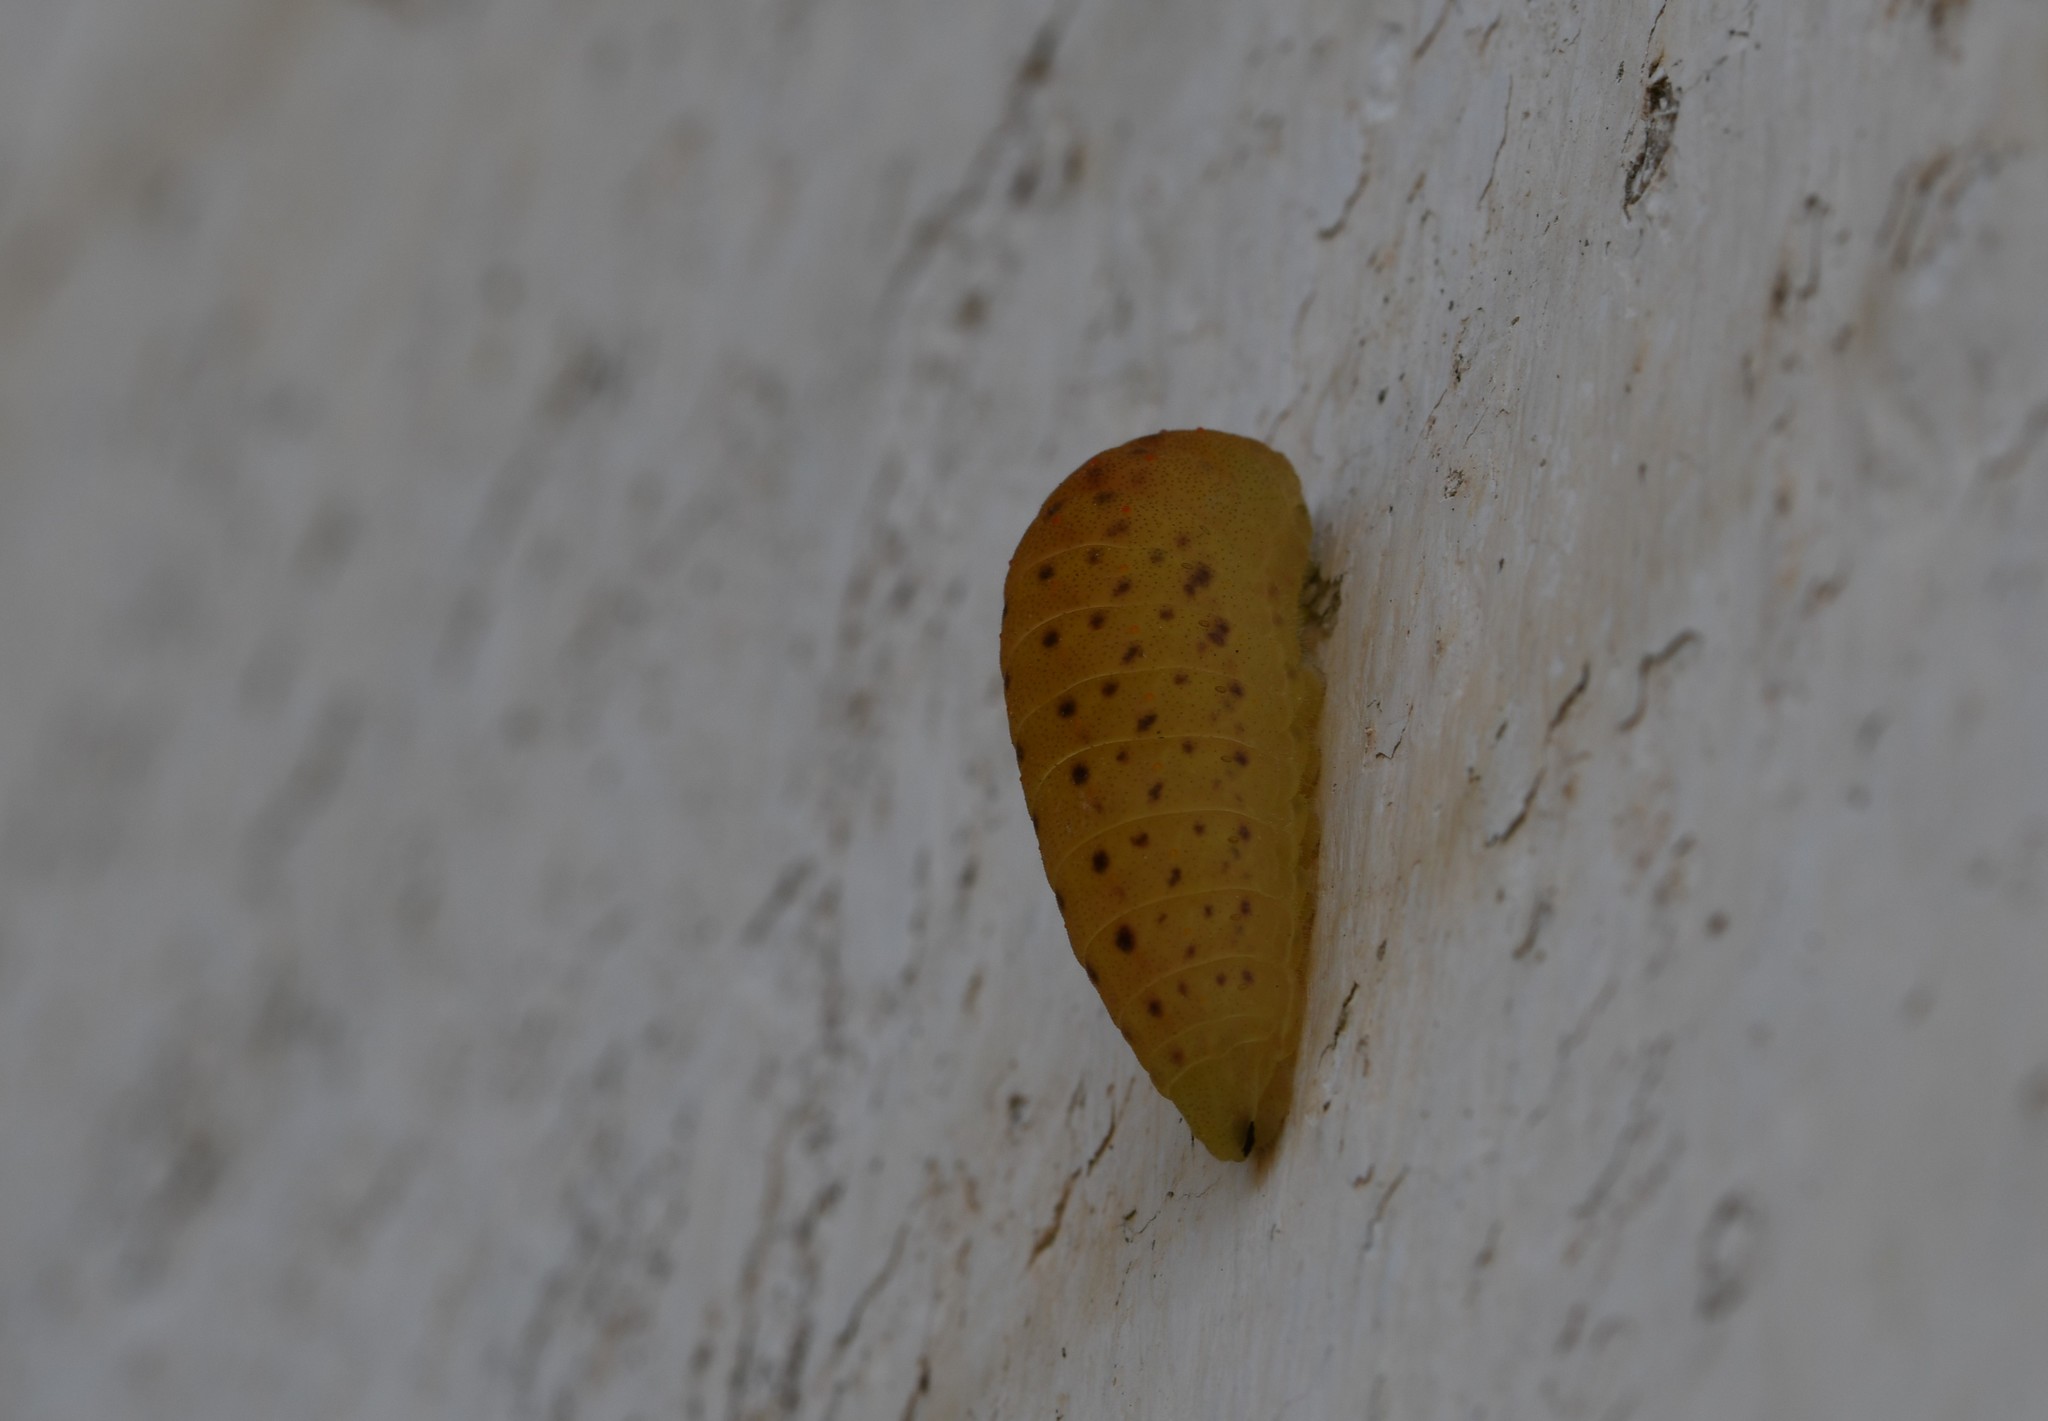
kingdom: Animalia
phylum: Arthropoda
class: Insecta
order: Lepidoptera
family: Papilionidae
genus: Iphiclides
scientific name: Iphiclides feisthamelii
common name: Iberian scarce swallowtail
